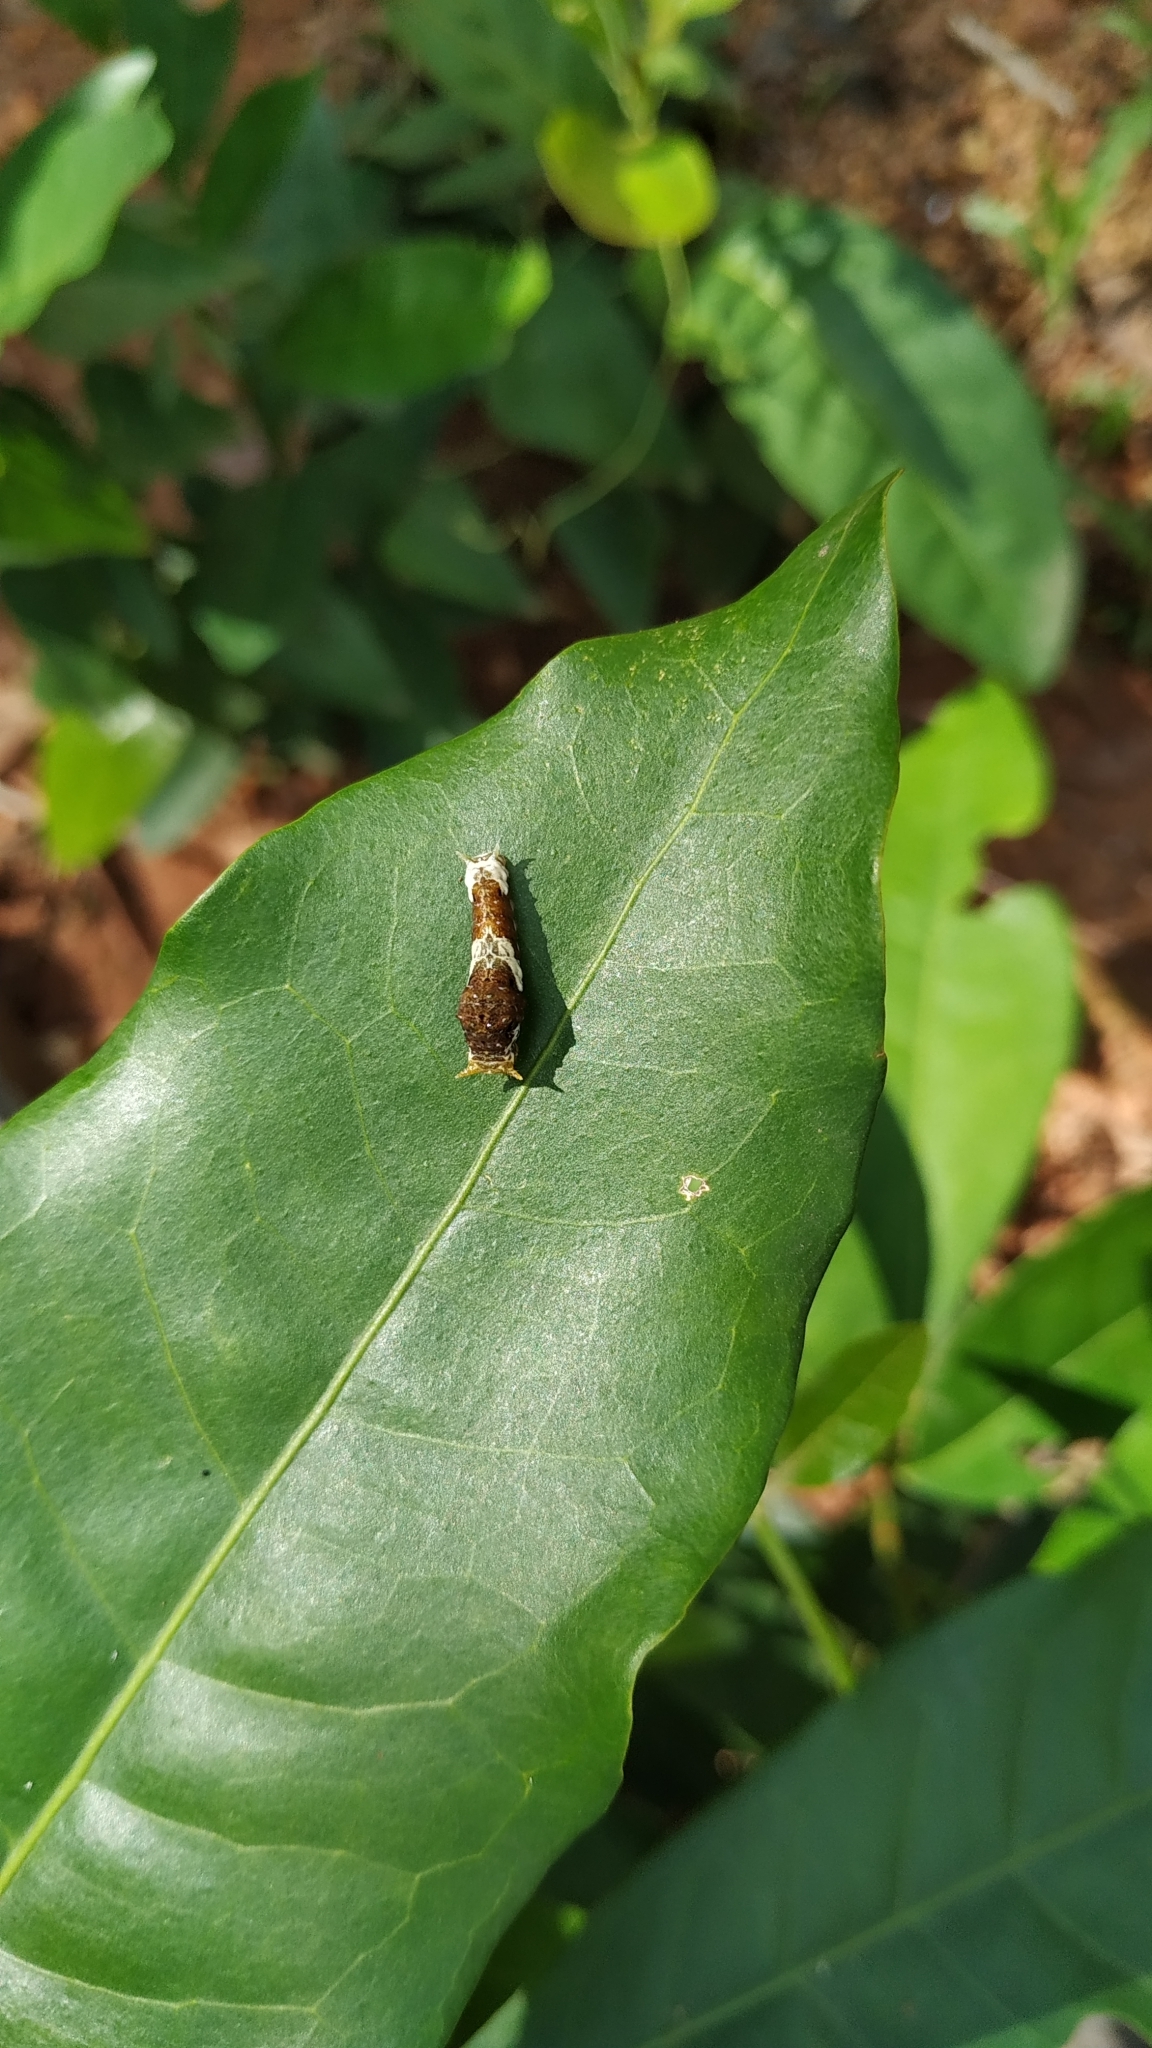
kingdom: Animalia
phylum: Arthropoda
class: Insecta
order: Lepidoptera
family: Papilionidae
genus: Papilio
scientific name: Papilio polytes
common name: Common mormon
